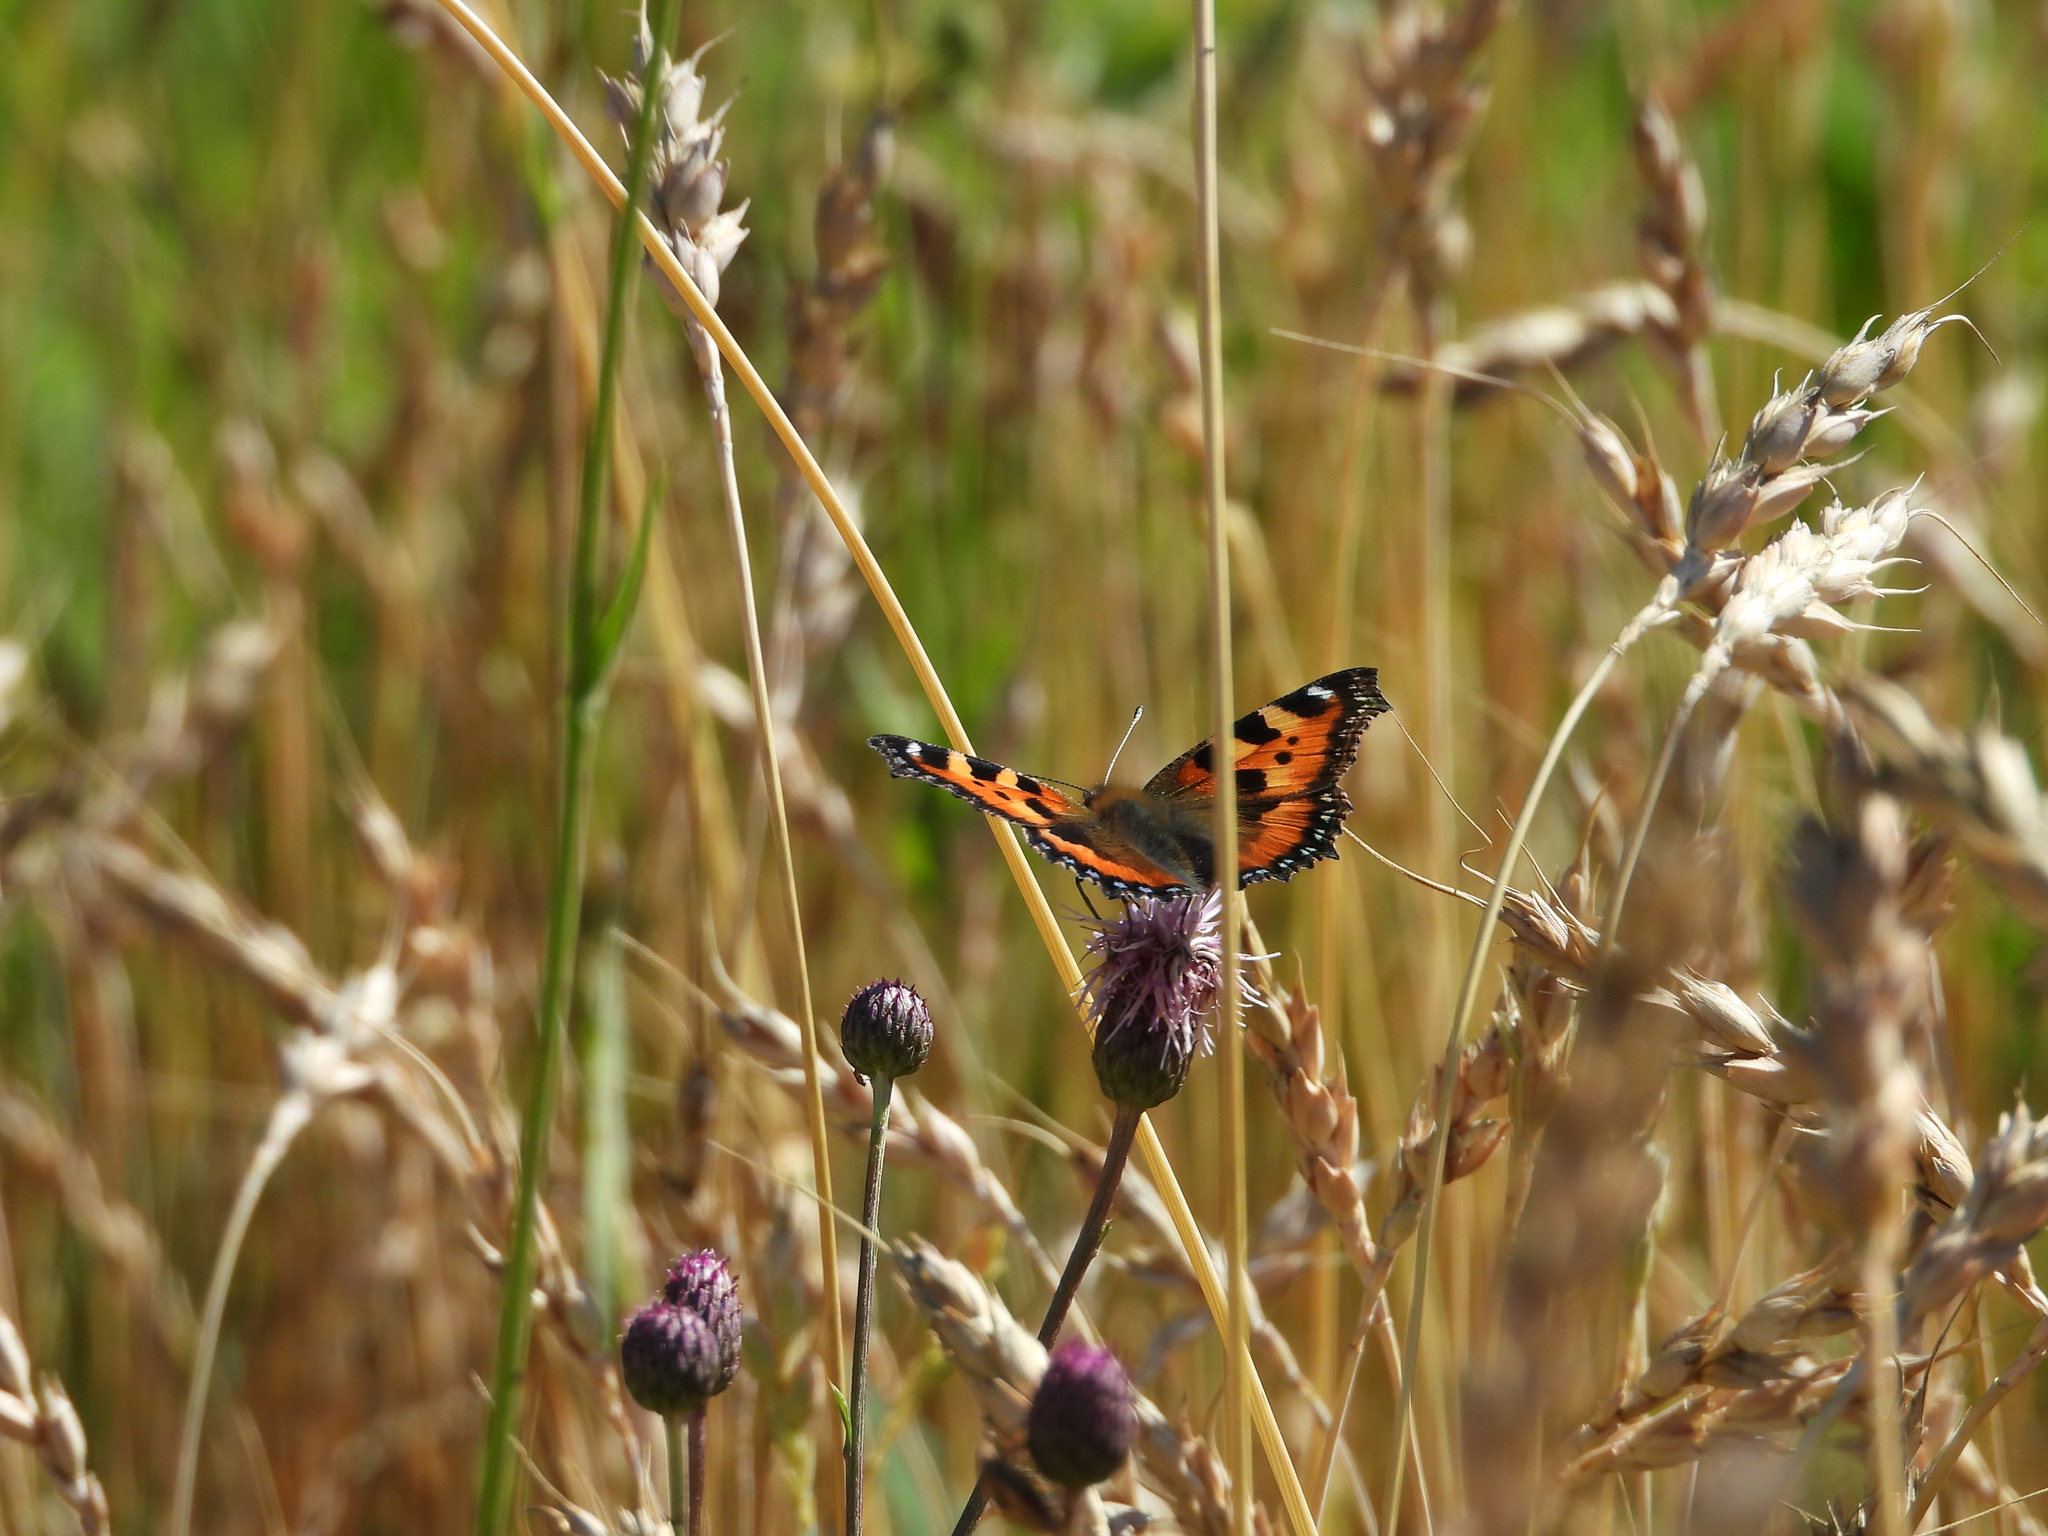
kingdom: Animalia
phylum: Arthropoda
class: Insecta
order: Lepidoptera
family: Nymphalidae
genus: Aglais
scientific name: Aglais urticae
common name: Small tortoiseshell
